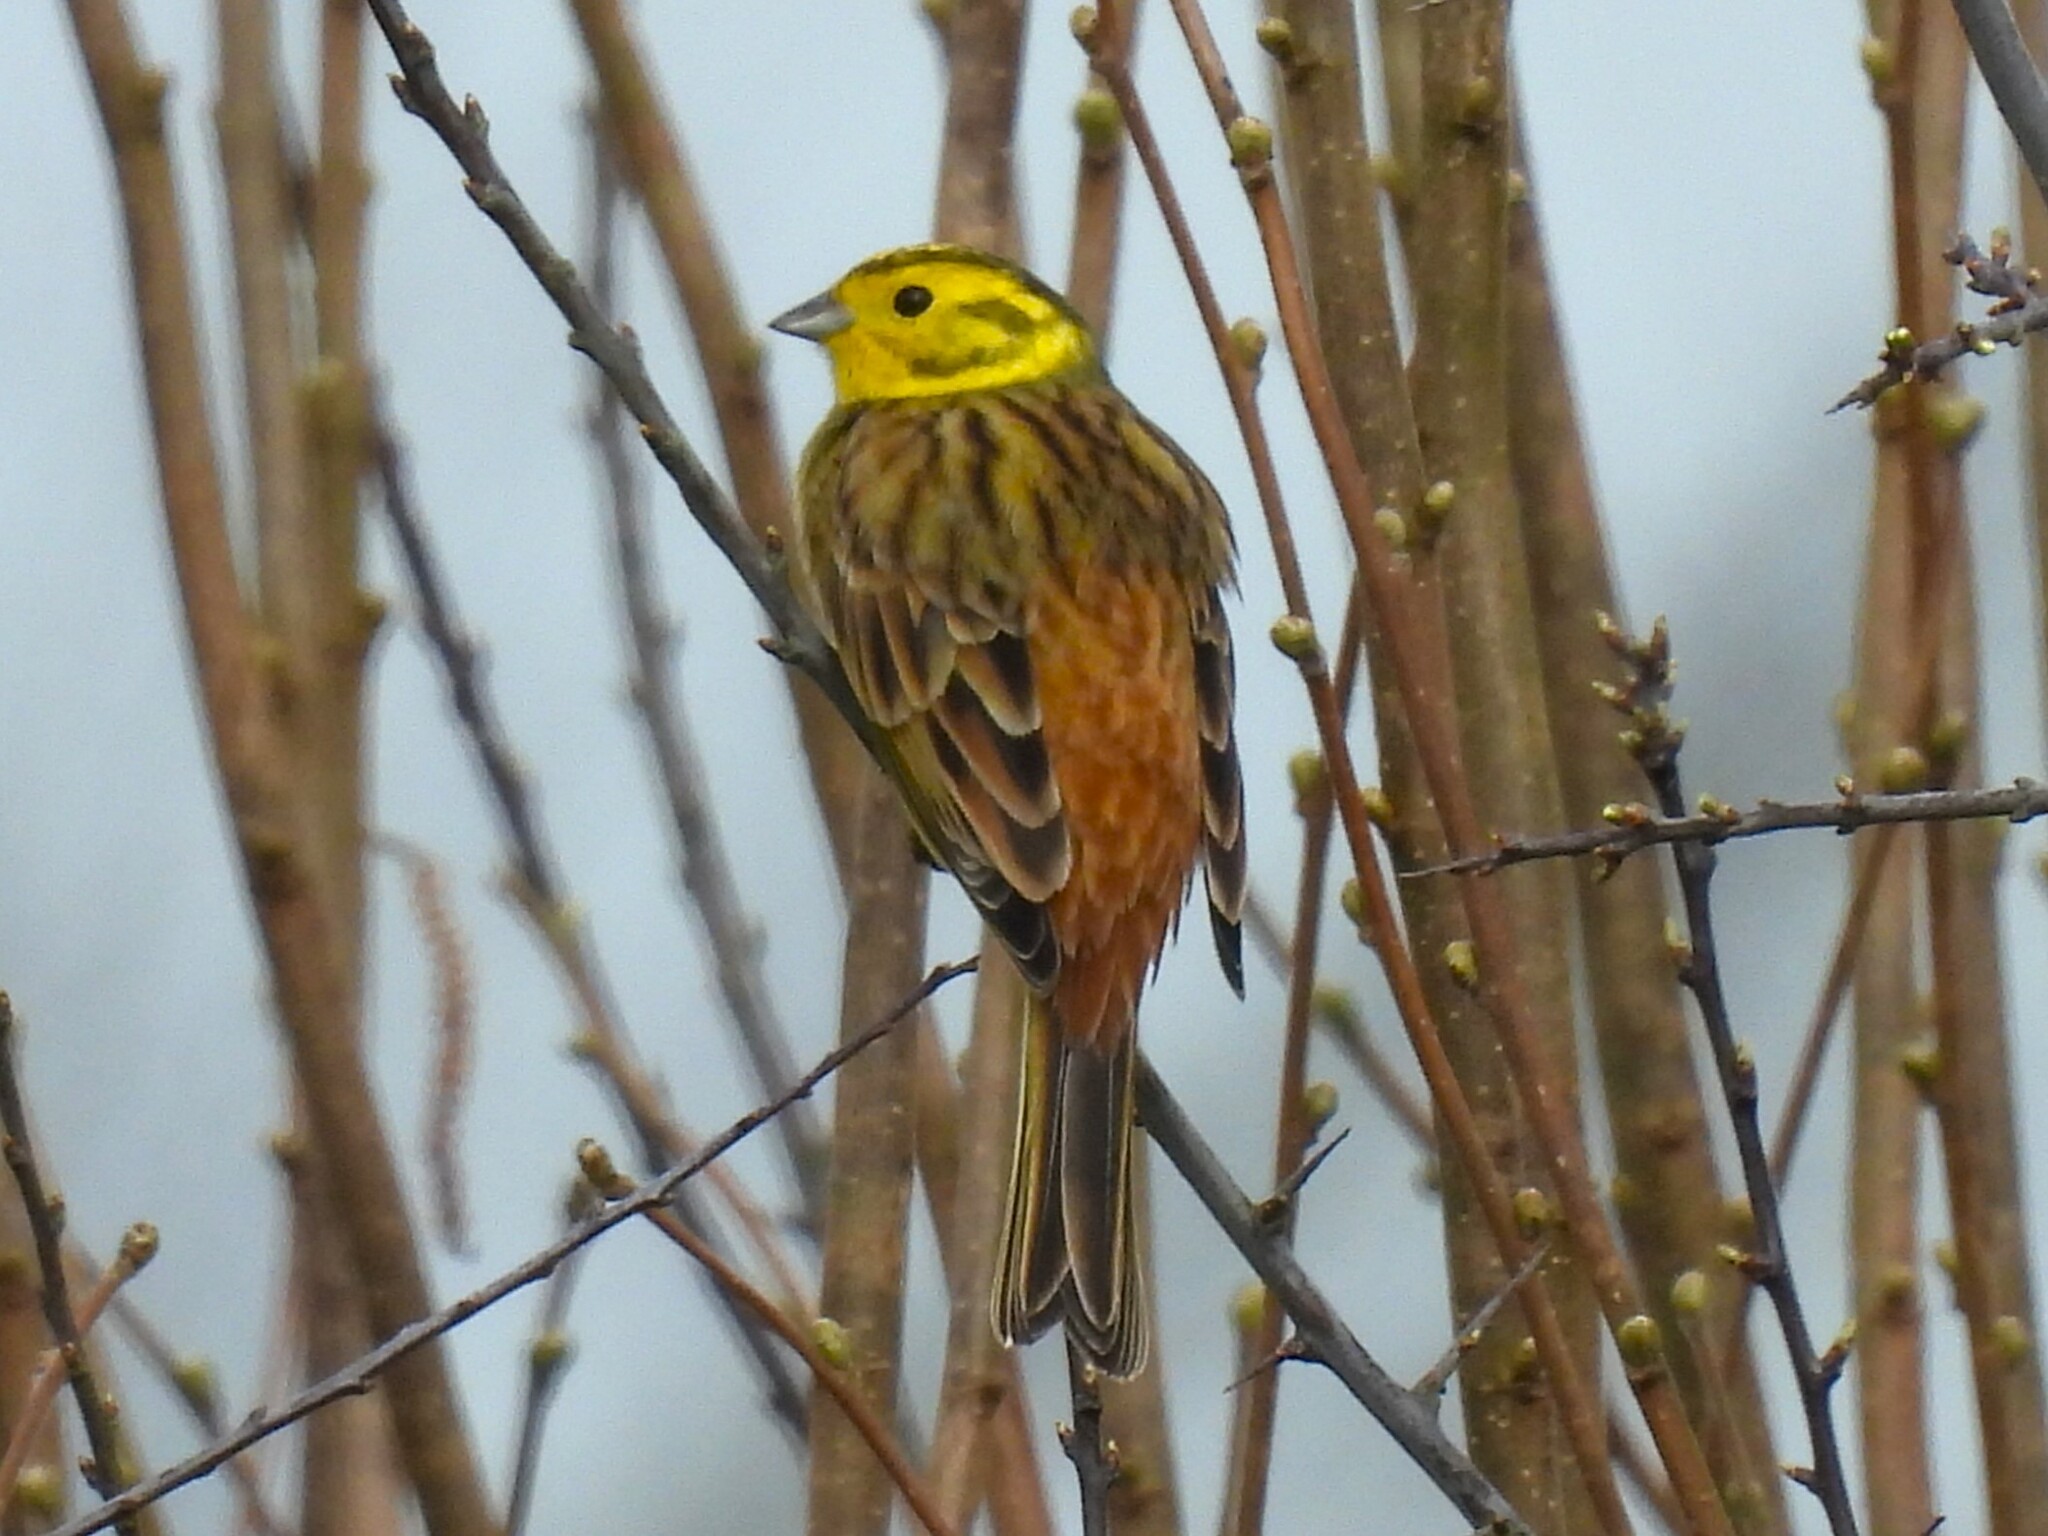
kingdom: Animalia
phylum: Chordata
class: Aves
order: Passeriformes
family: Emberizidae
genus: Emberiza
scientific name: Emberiza citrinella
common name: Yellowhammer
